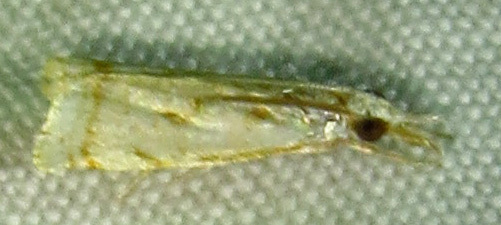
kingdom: Animalia
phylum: Arthropoda
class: Insecta
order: Lepidoptera
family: Crambidae
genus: Microcrambus
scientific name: Microcrambus elegans
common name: Elegant grass-veneer
